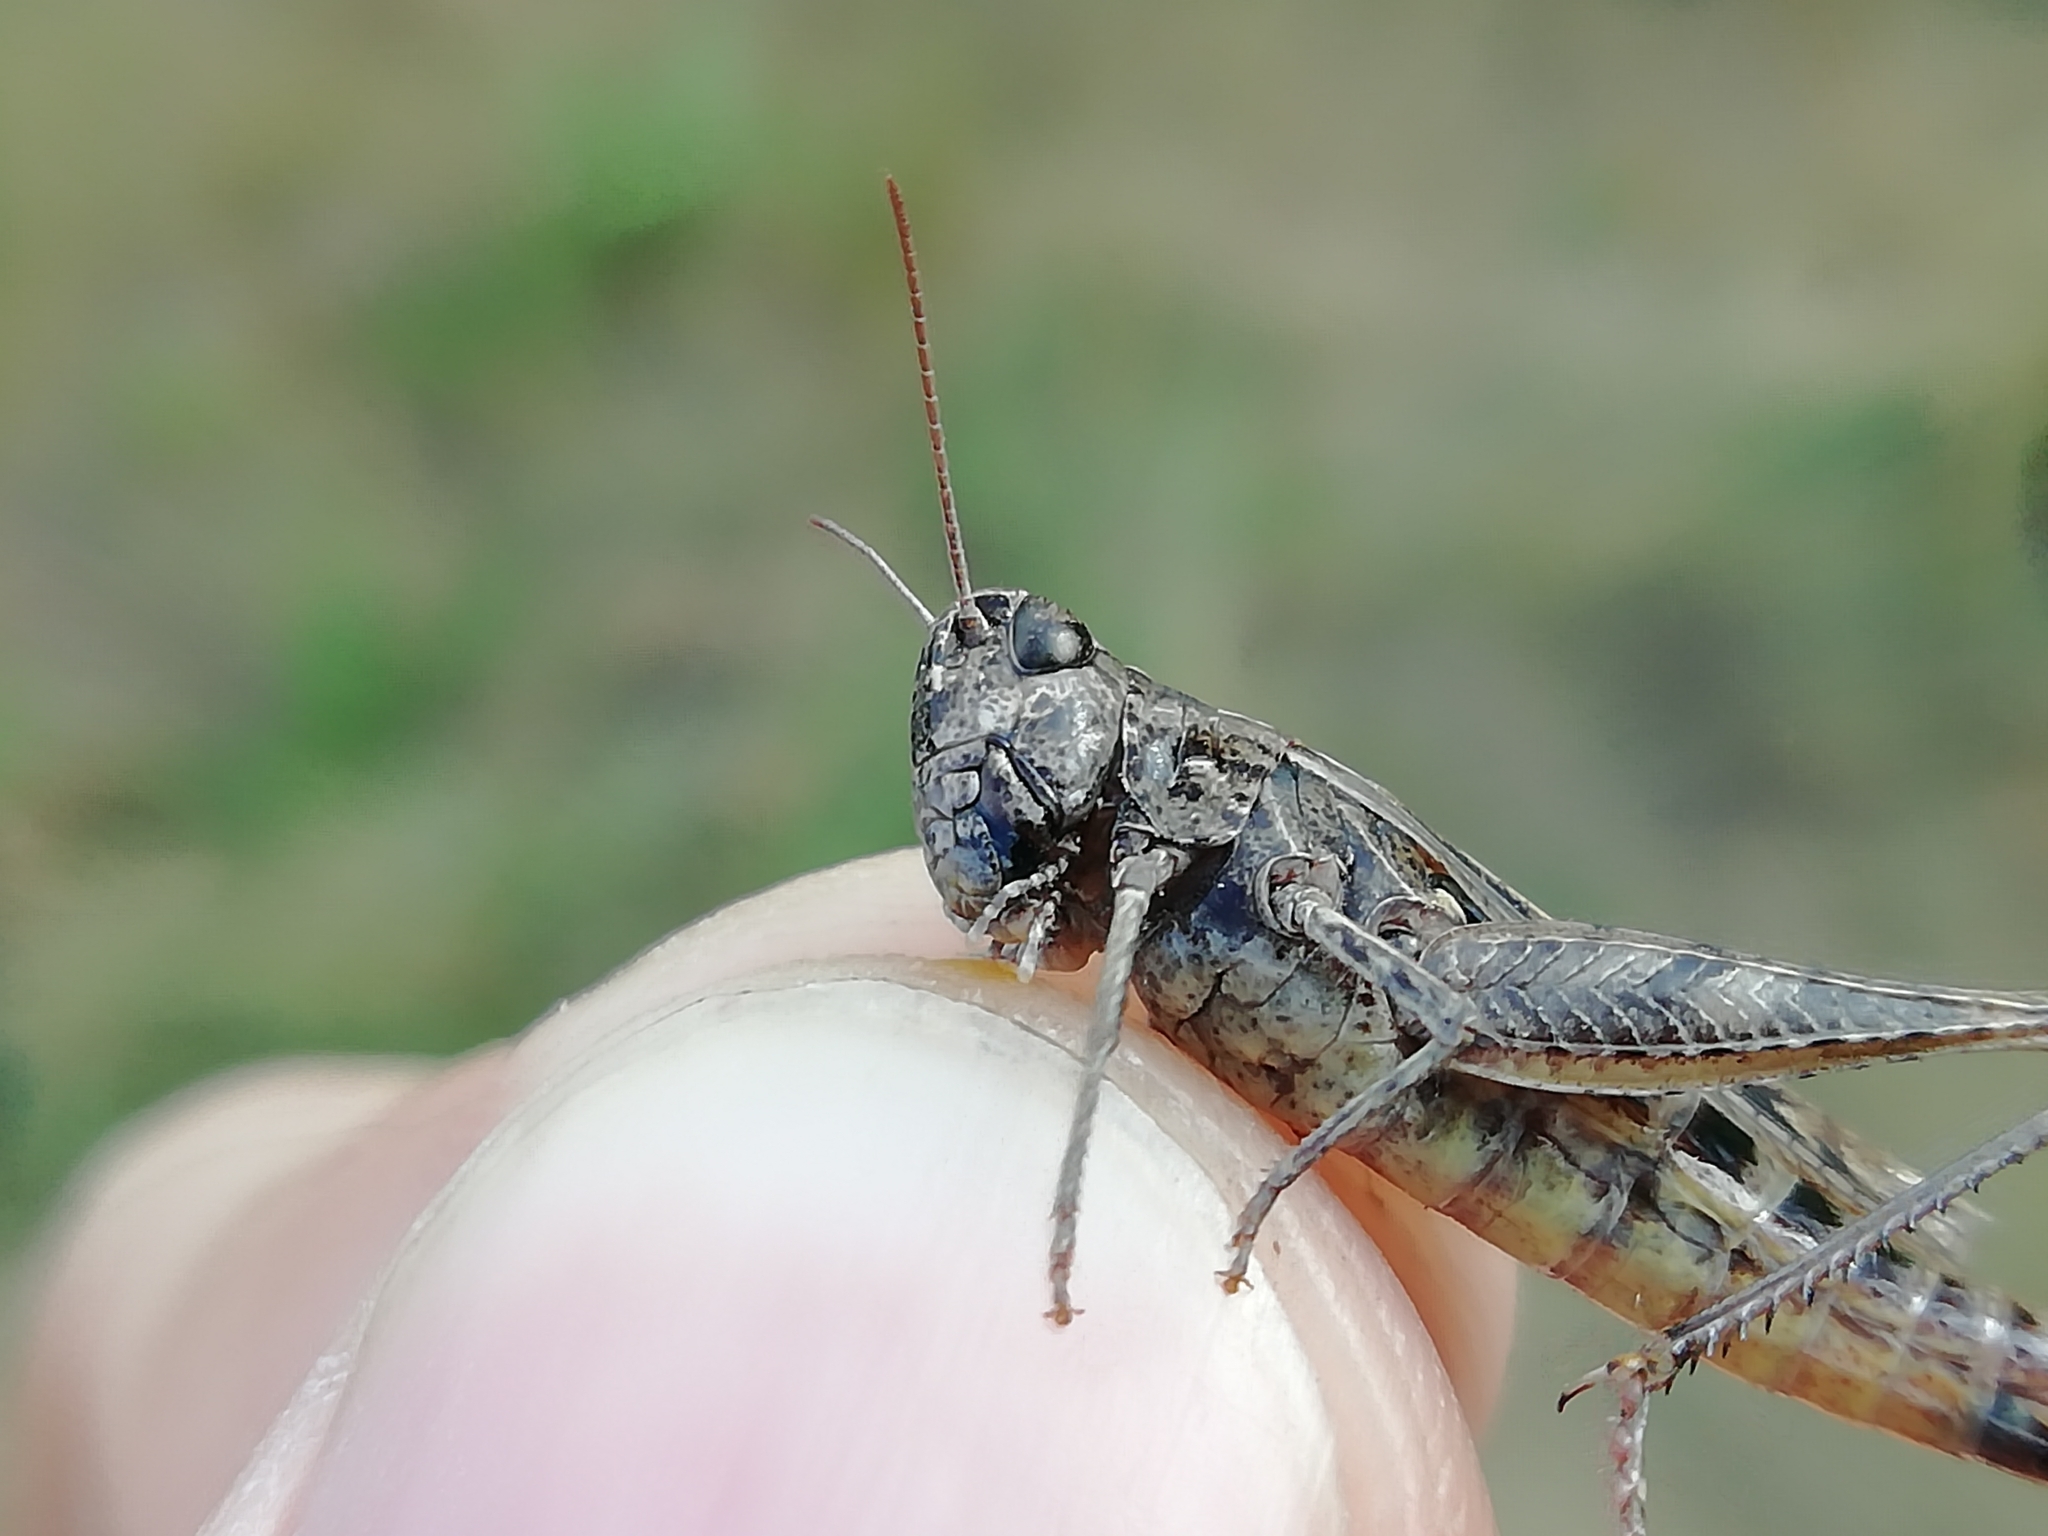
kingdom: Animalia
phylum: Arthropoda
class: Insecta
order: Orthoptera
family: Acrididae
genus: Omocestus
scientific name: Omocestus haemorrhoidalis
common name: Orange-tipped grasshopper
